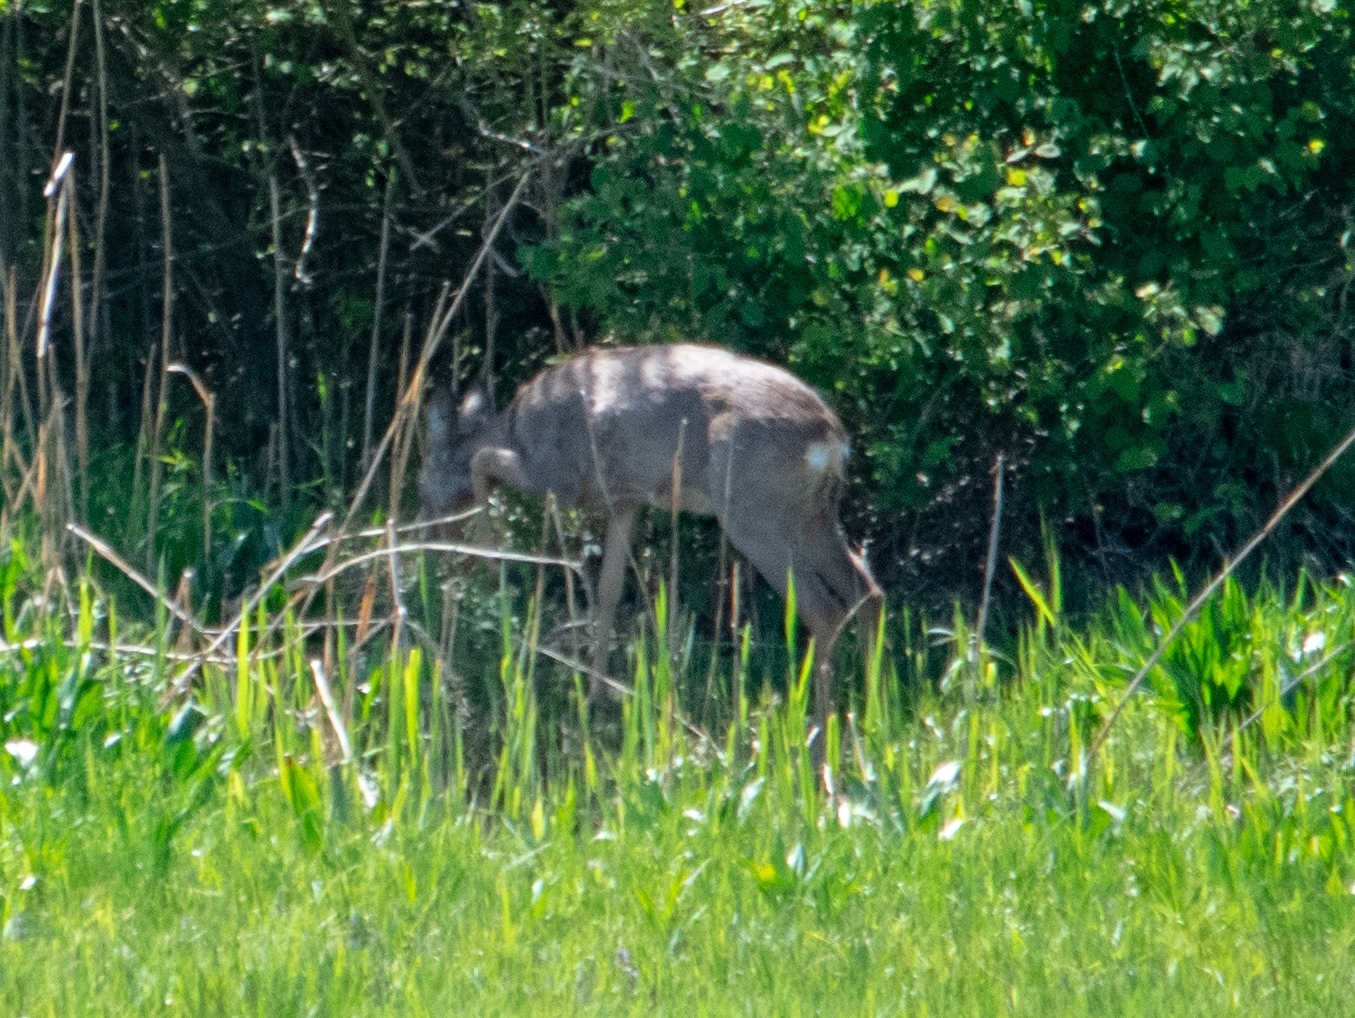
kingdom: Animalia
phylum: Chordata
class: Mammalia
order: Artiodactyla
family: Cervidae
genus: Capreolus
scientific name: Capreolus capreolus
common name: Western roe deer
